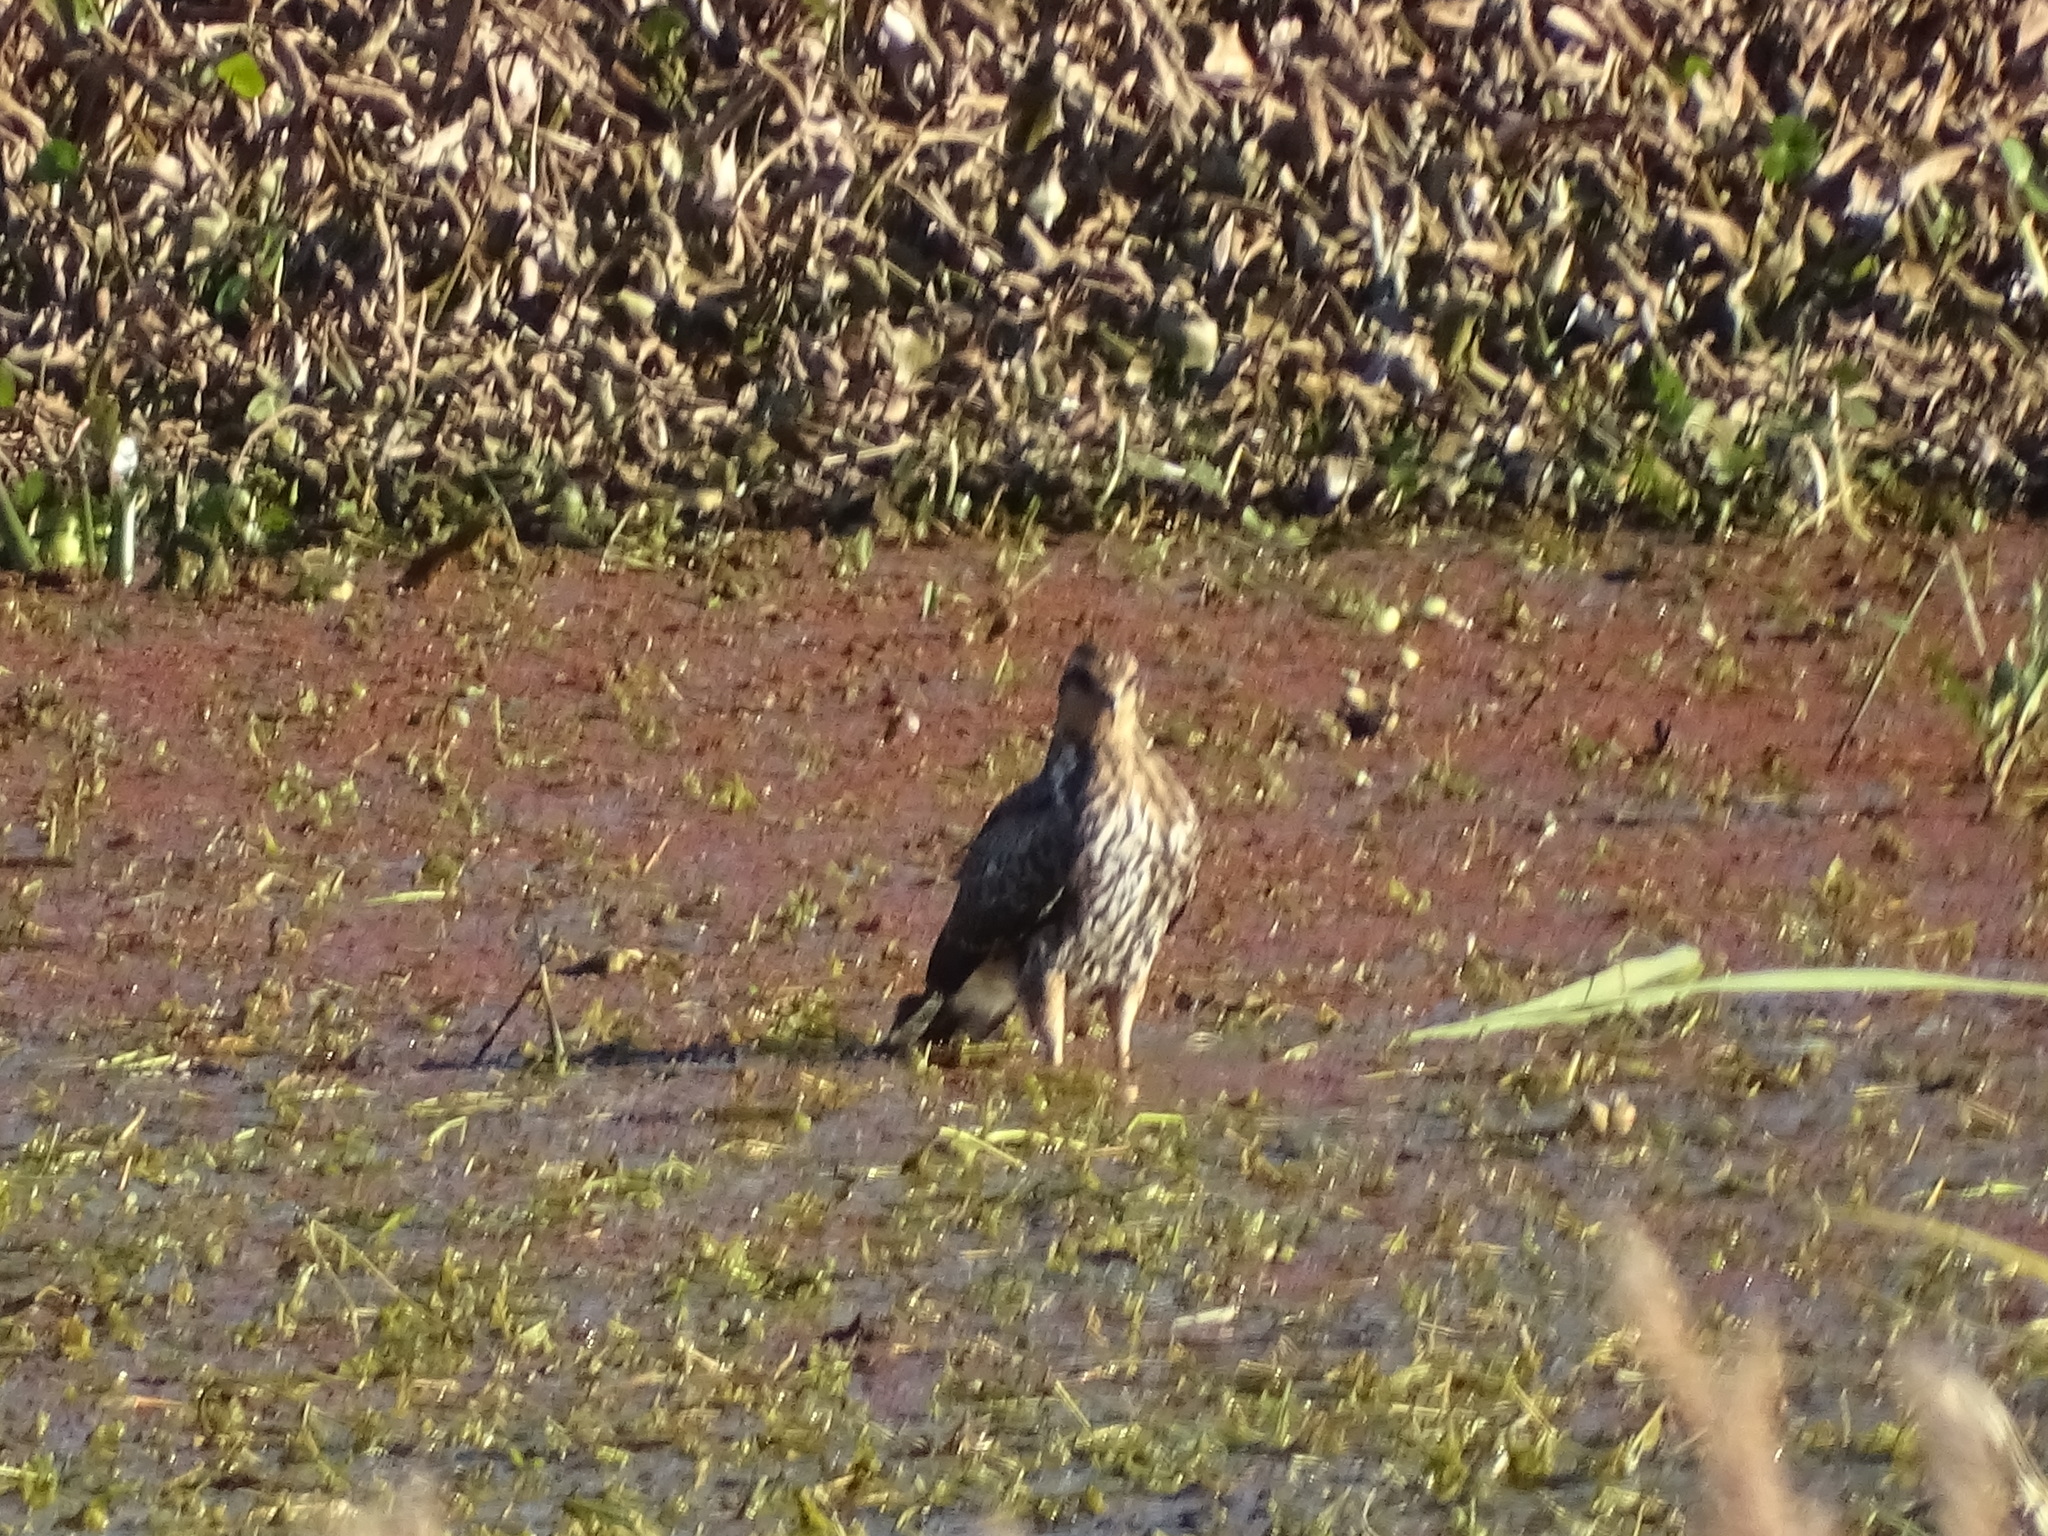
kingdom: Animalia
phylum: Chordata
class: Aves
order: Accipitriformes
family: Accipitridae
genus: Rostrhamus
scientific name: Rostrhamus sociabilis
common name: Snail kite
